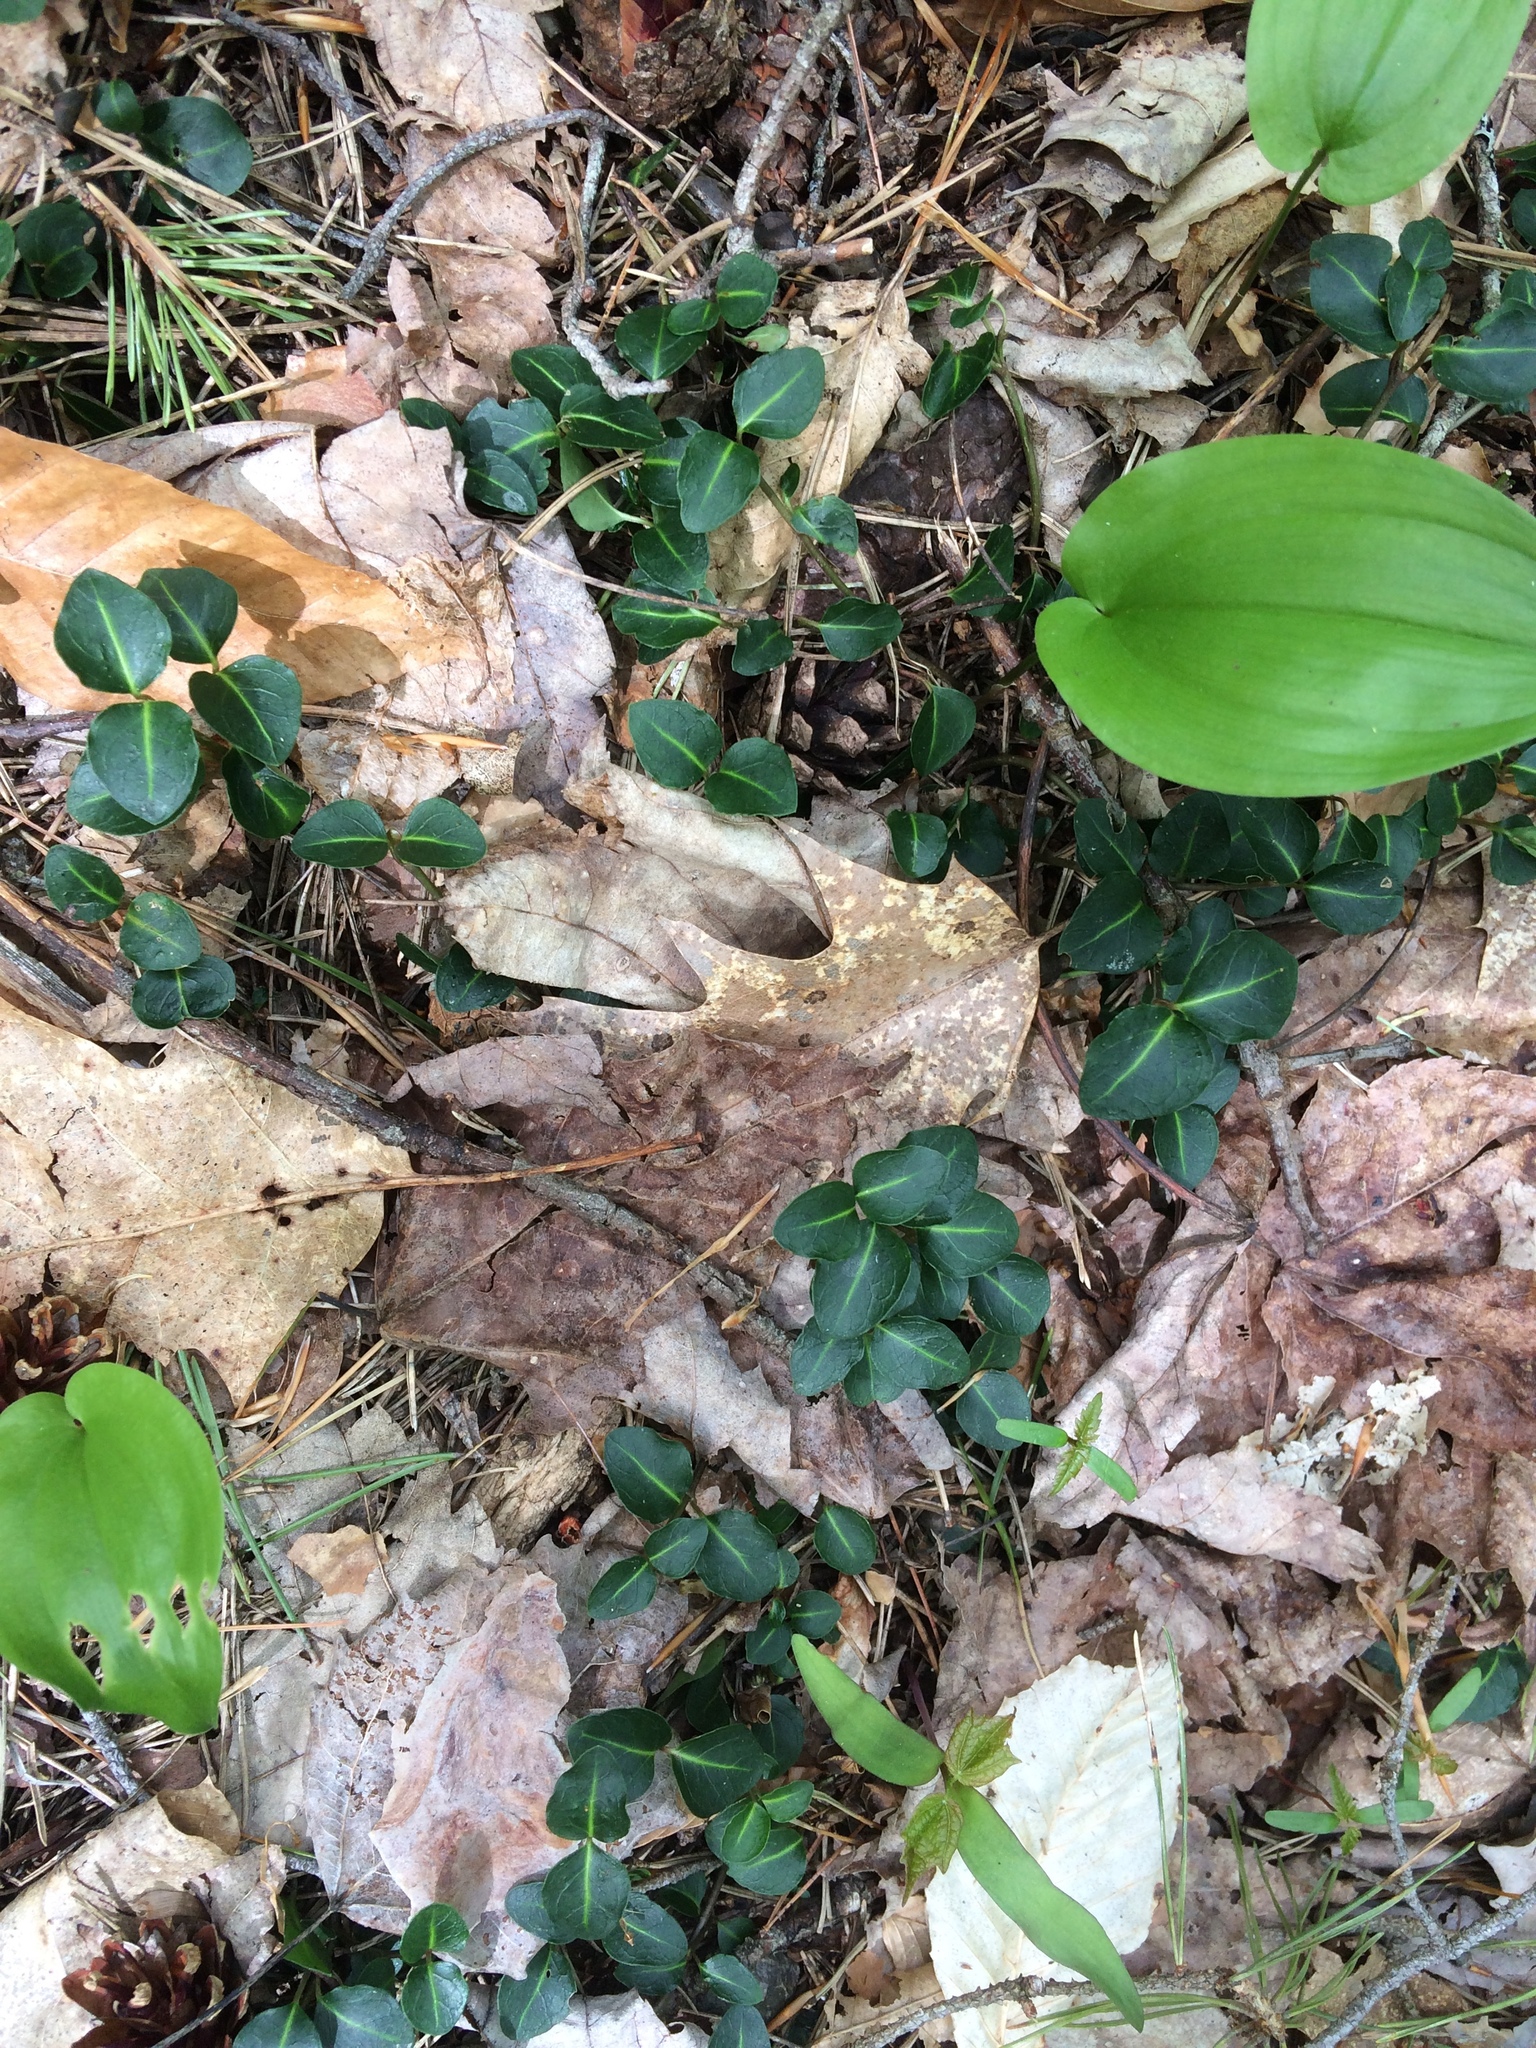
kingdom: Plantae
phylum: Tracheophyta
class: Magnoliopsida
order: Gentianales
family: Rubiaceae
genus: Mitchella
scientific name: Mitchella repens
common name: Partridge-berry
